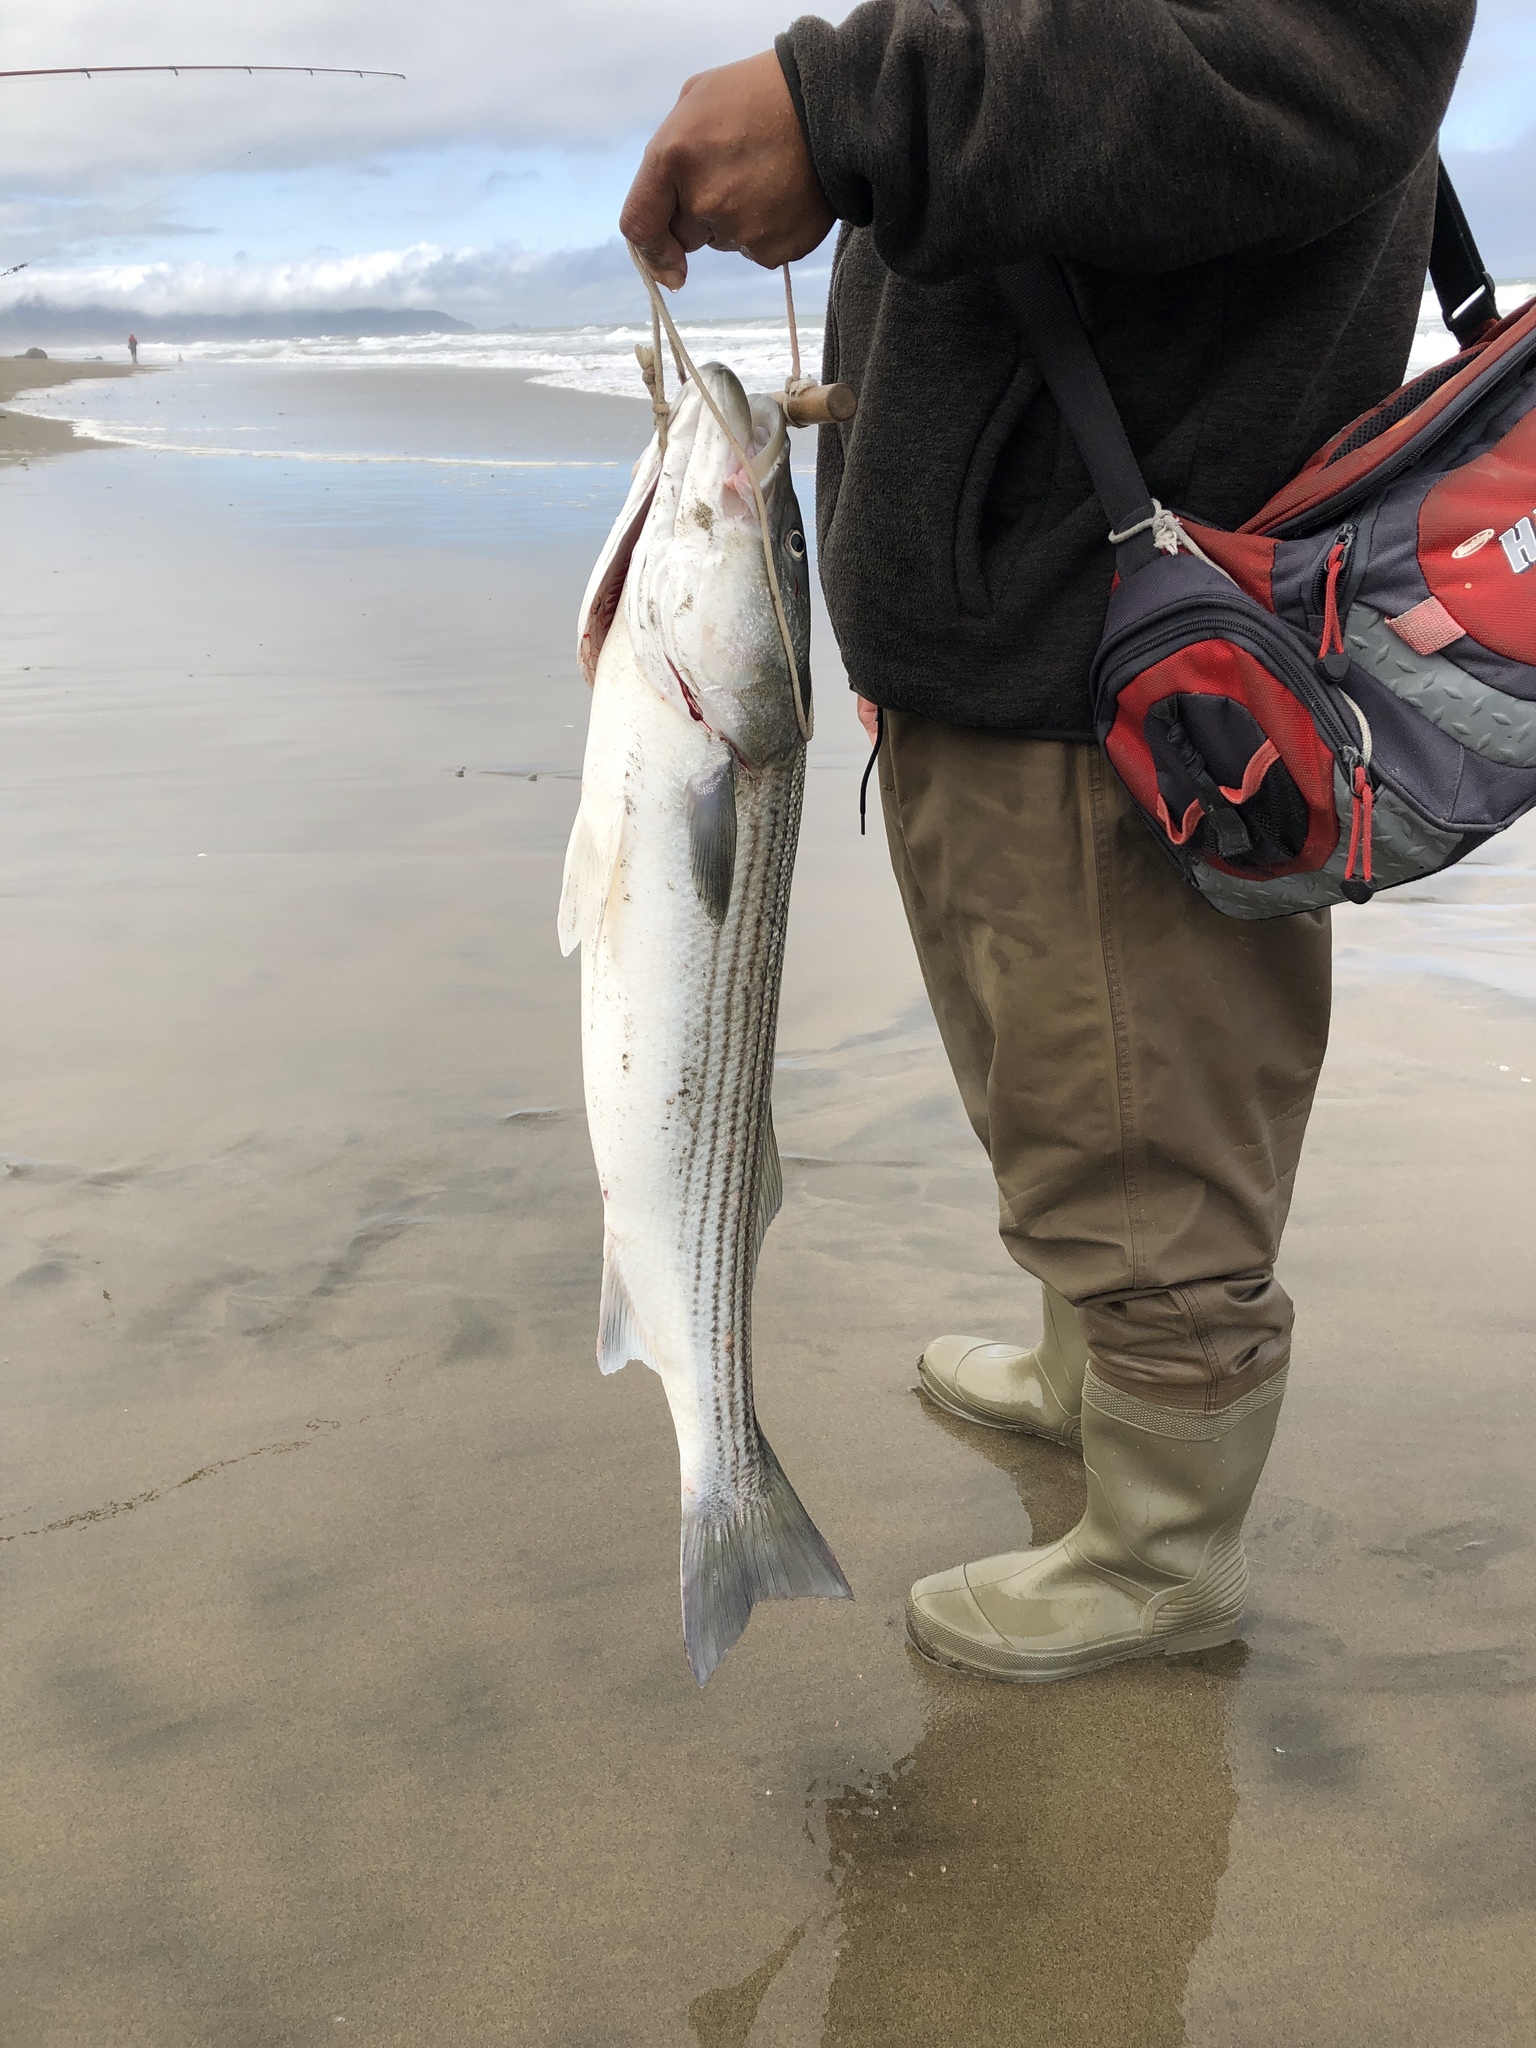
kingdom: Animalia
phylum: Chordata
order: Perciformes
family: Moronidae
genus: Morone
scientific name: Morone saxatilis
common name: Striped bass
